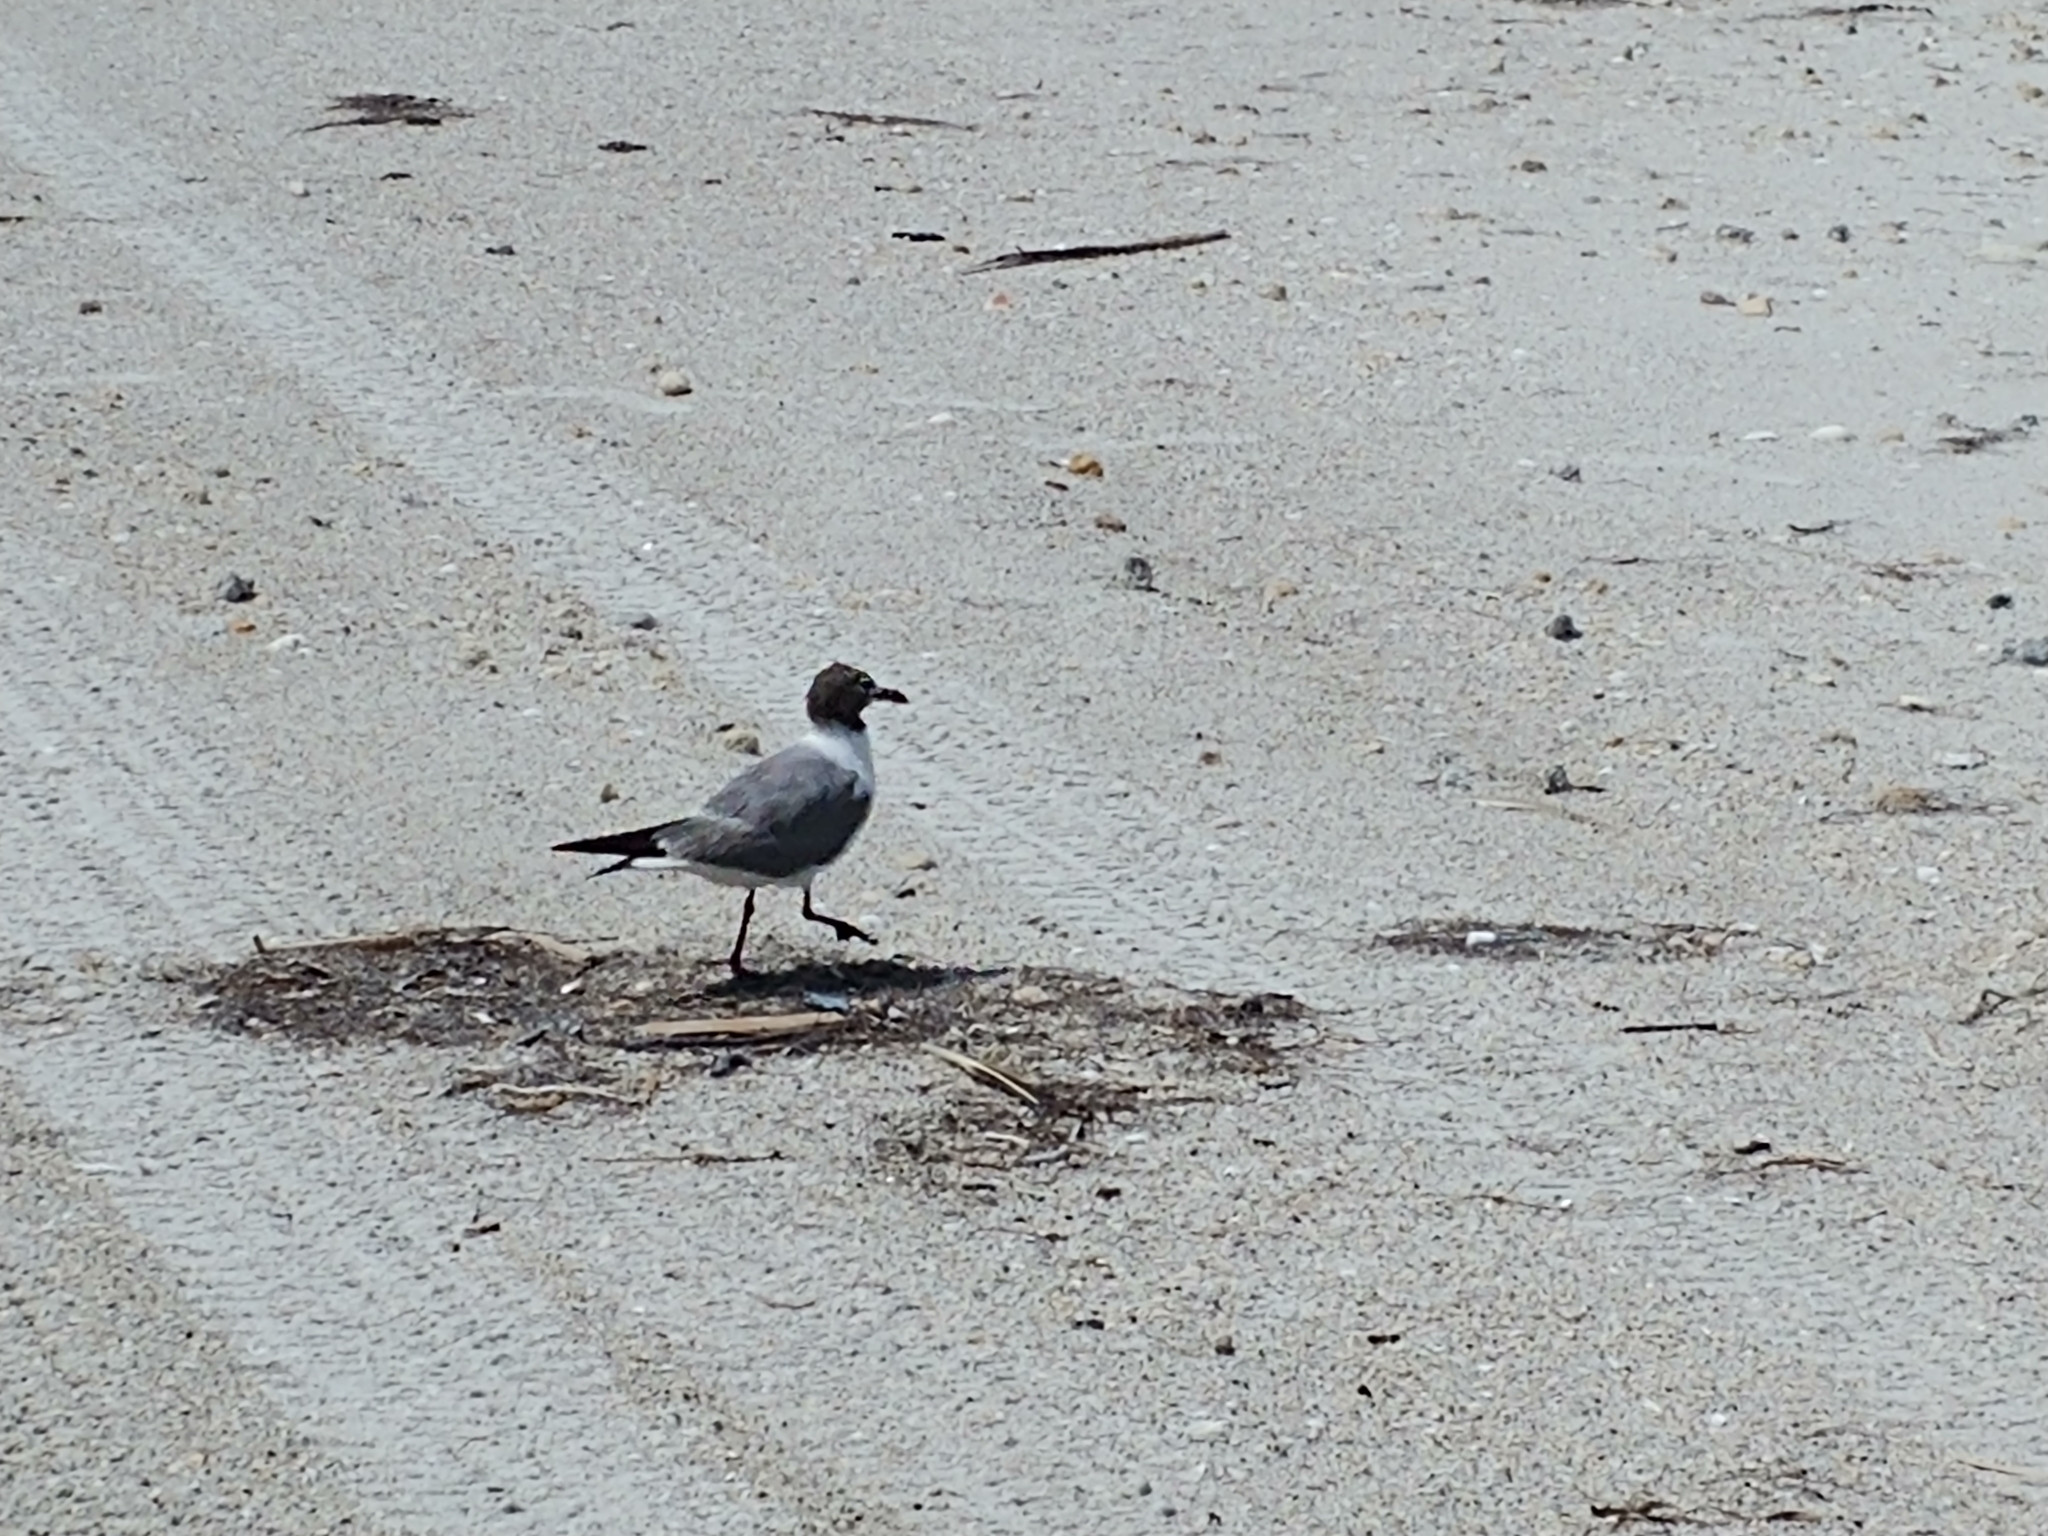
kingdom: Animalia
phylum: Chordata
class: Aves
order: Charadriiformes
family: Laridae
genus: Leucophaeus
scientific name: Leucophaeus atricilla
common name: Laughing gull
